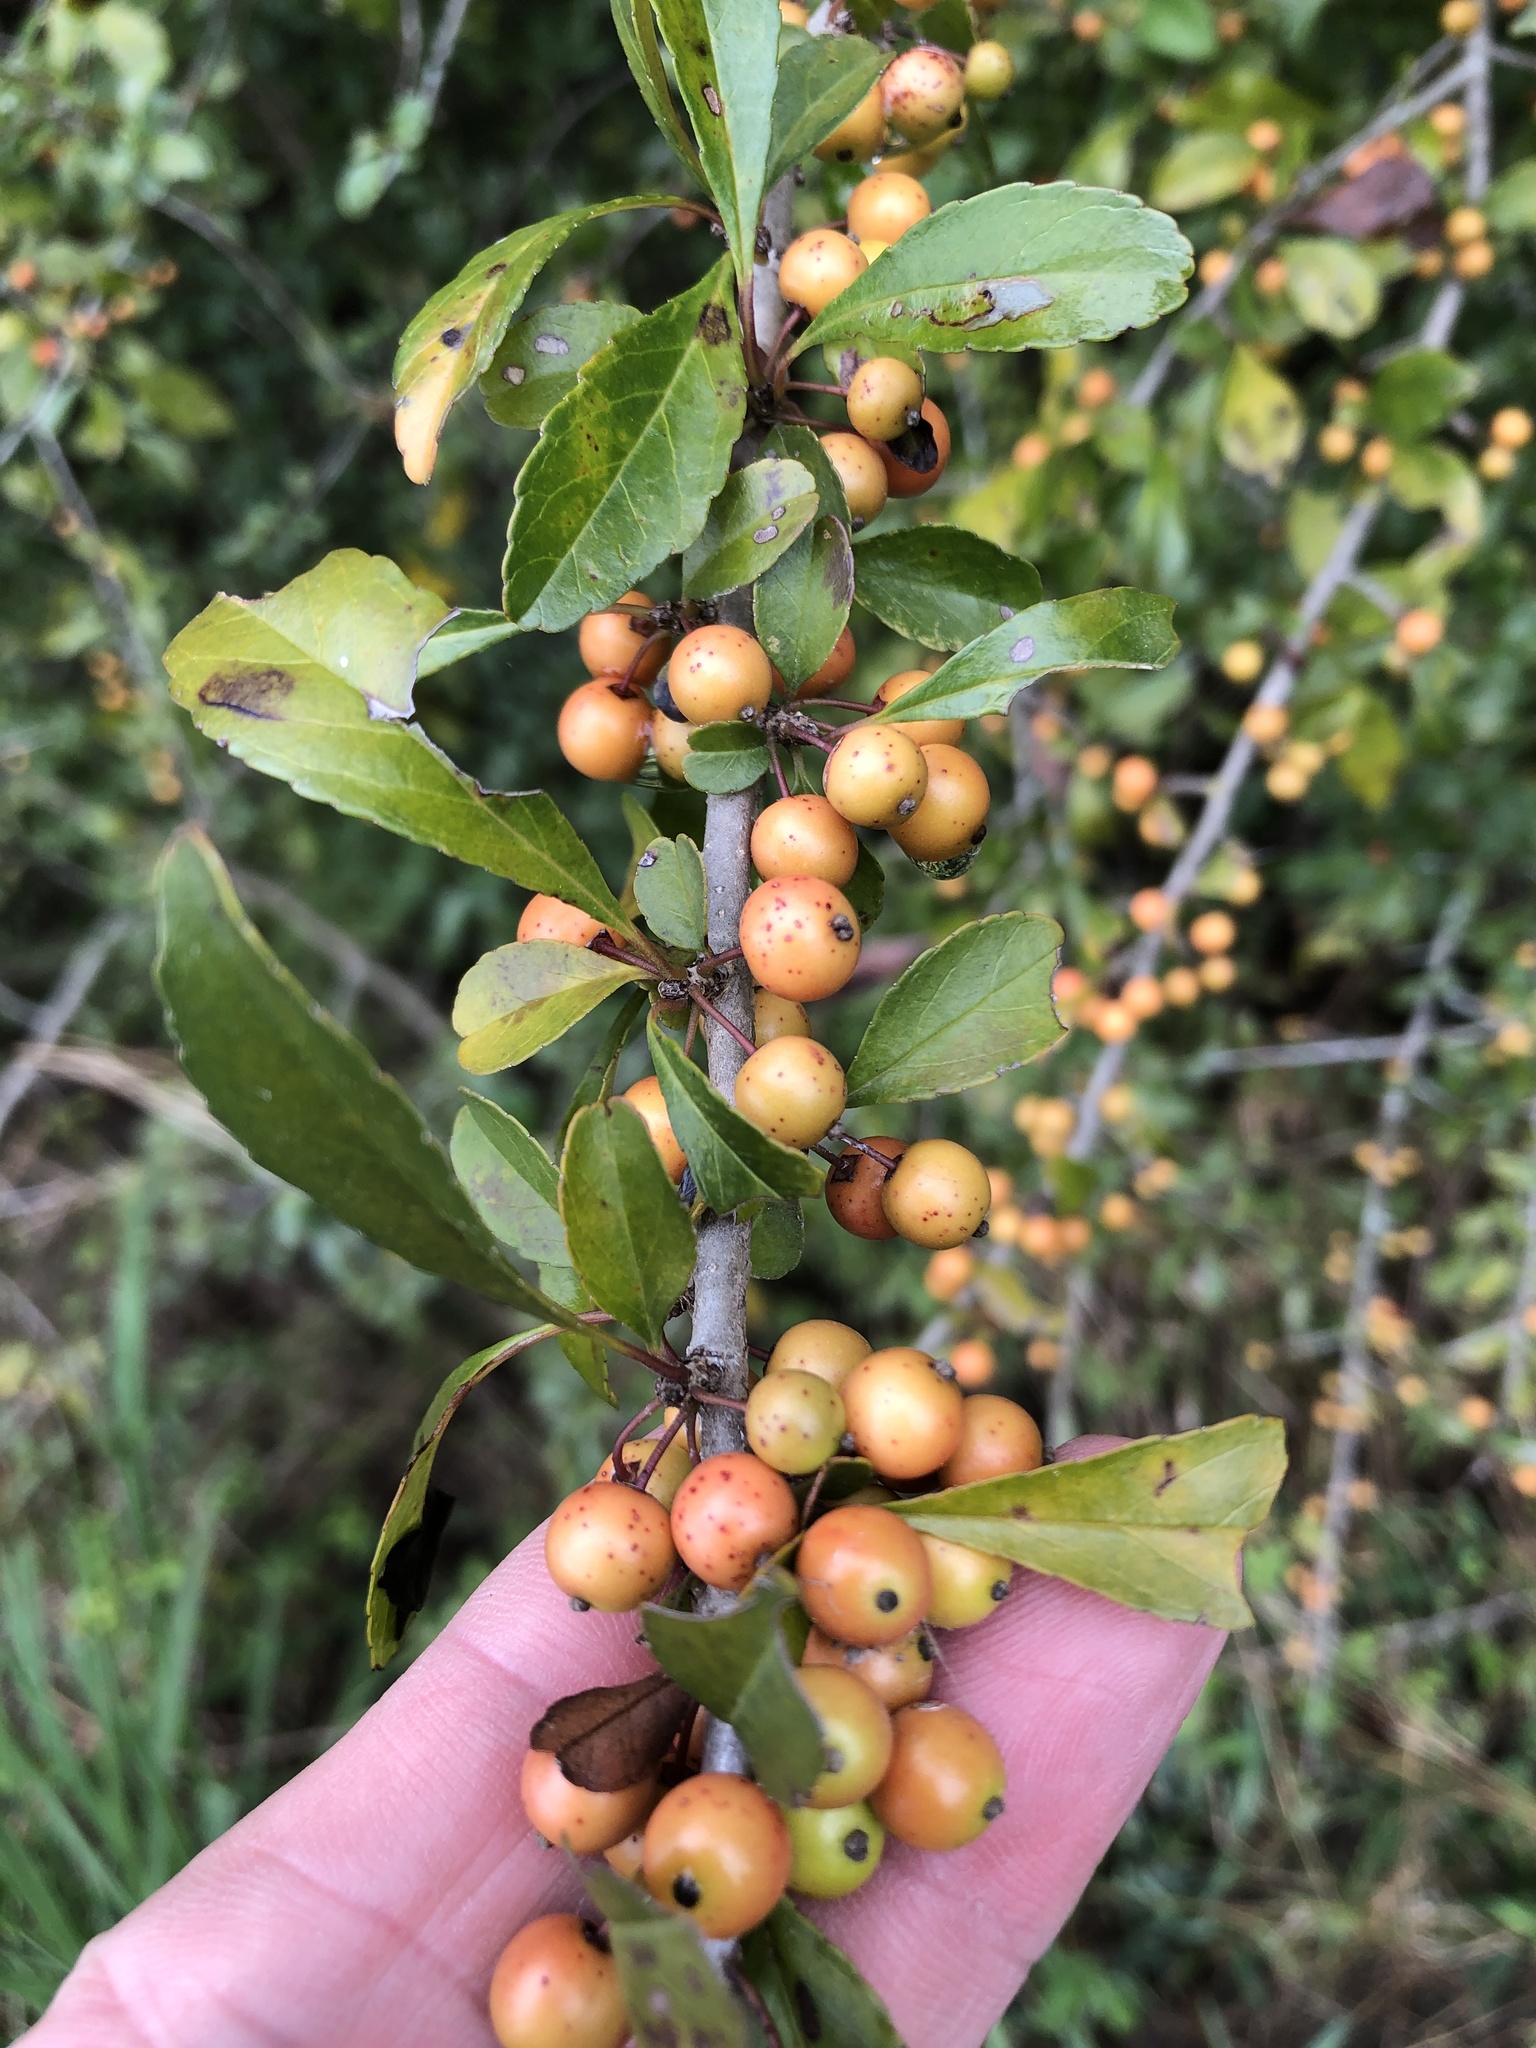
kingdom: Plantae
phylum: Tracheophyta
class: Magnoliopsida
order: Aquifoliales
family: Aquifoliaceae
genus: Ilex
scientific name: Ilex decidua
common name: Possum-haw
